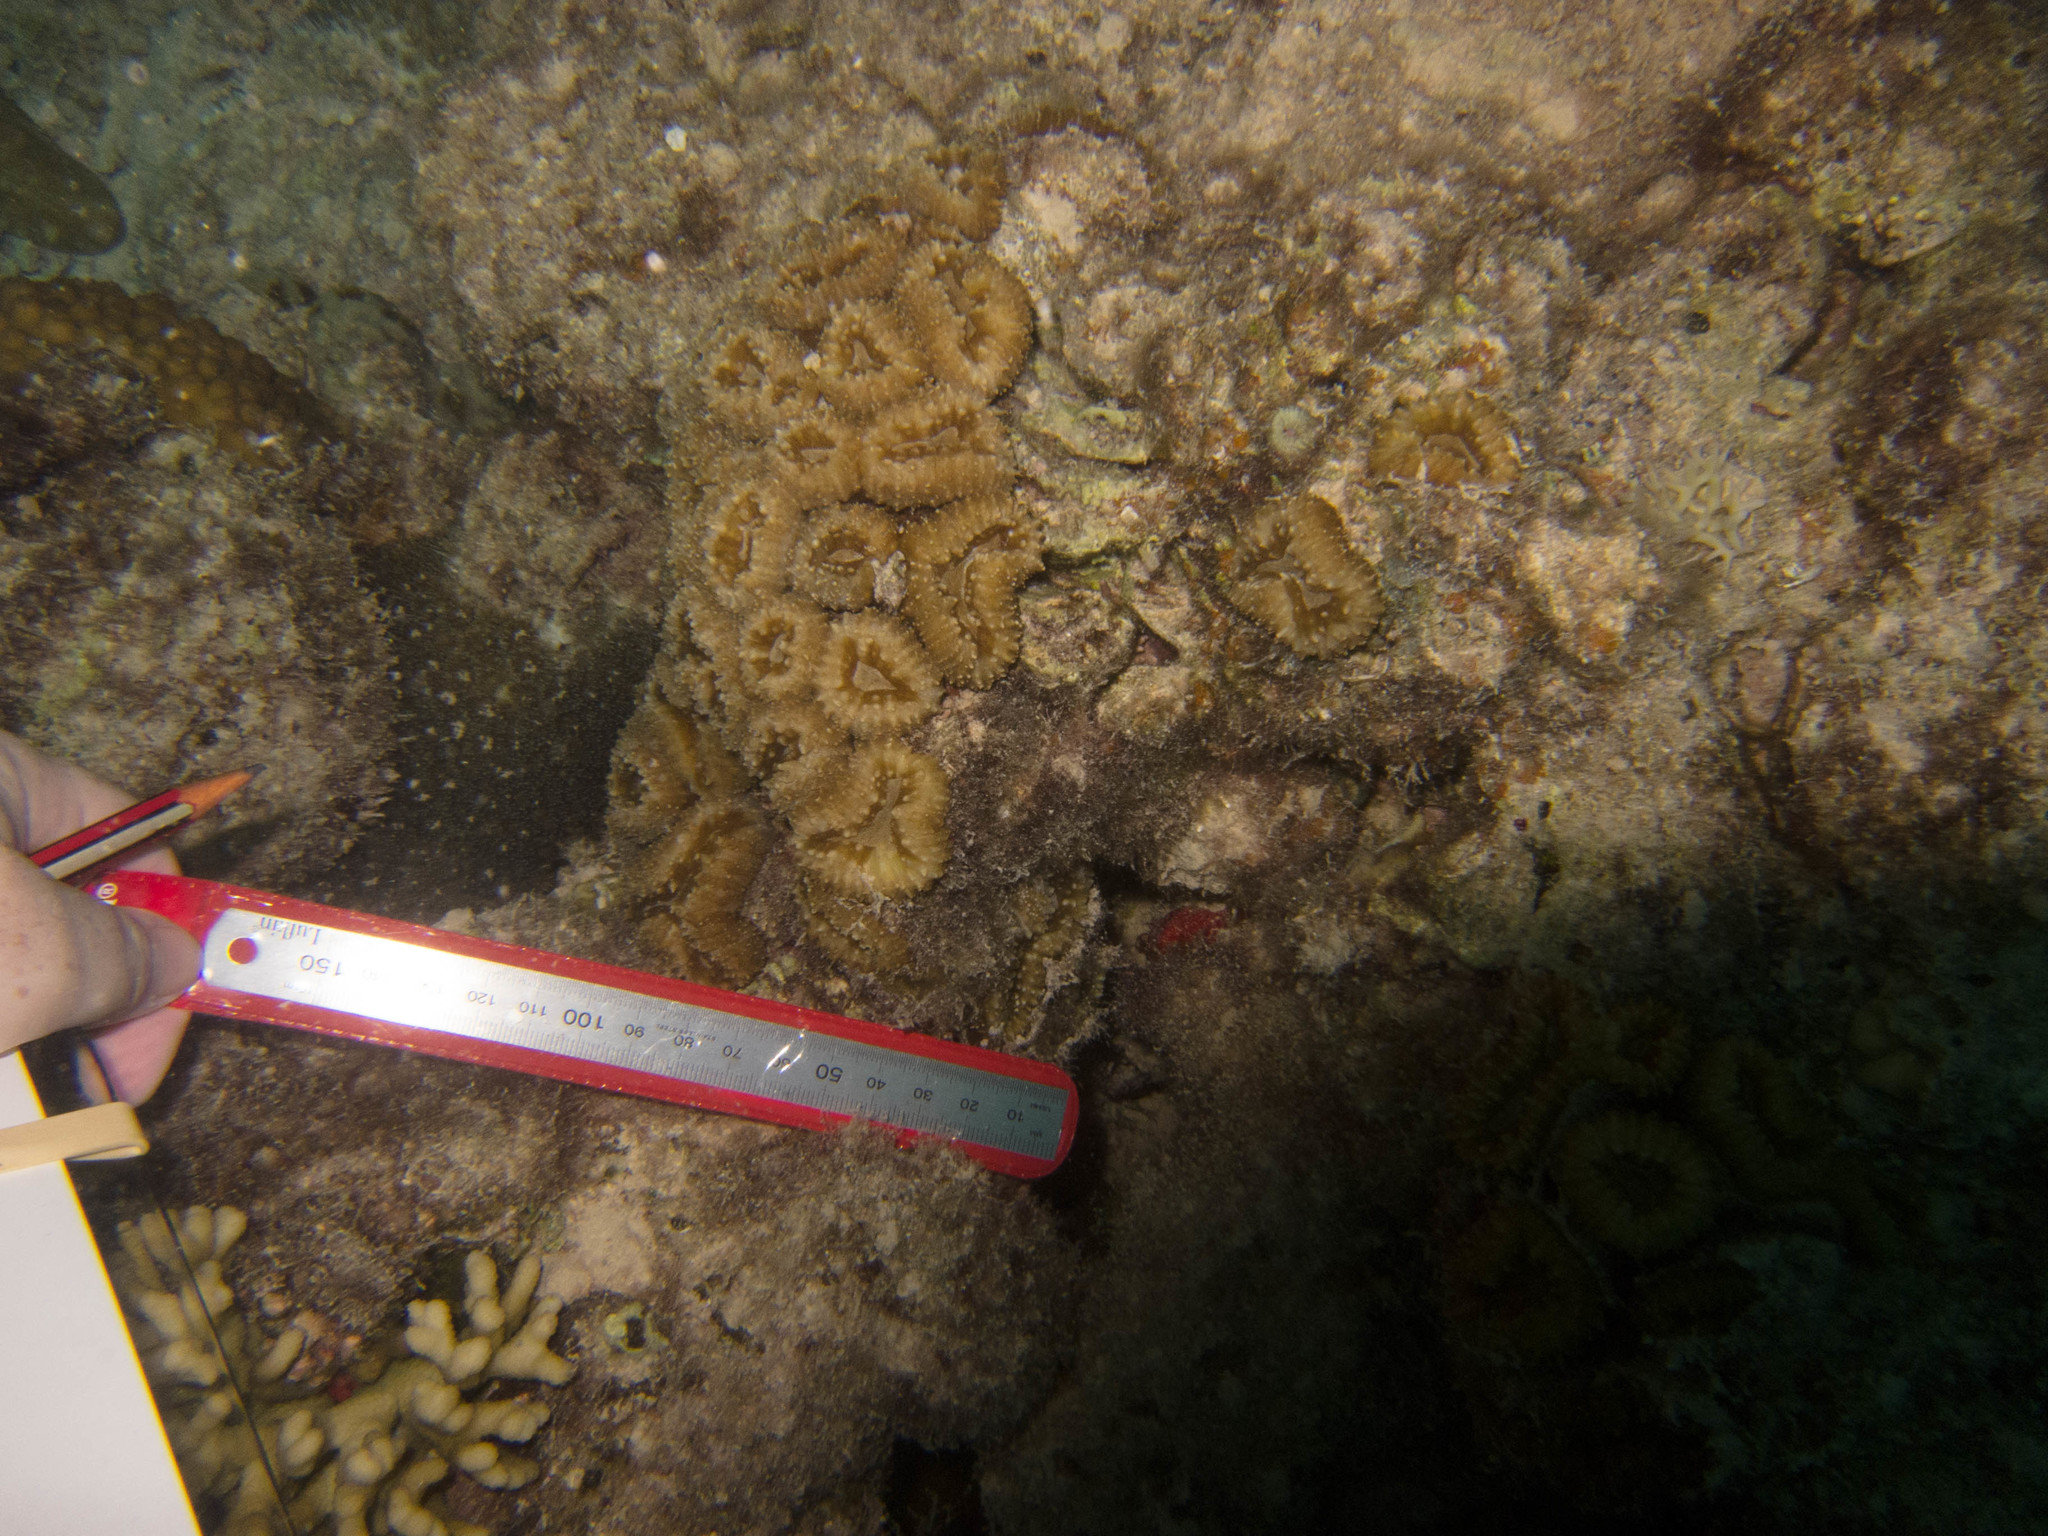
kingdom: Animalia
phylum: Cnidaria
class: Anthozoa
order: Scleractinia
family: Lobophylliidae
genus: Lobophyllia
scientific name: Lobophyllia corymbosa
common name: Lobed cactus coral
